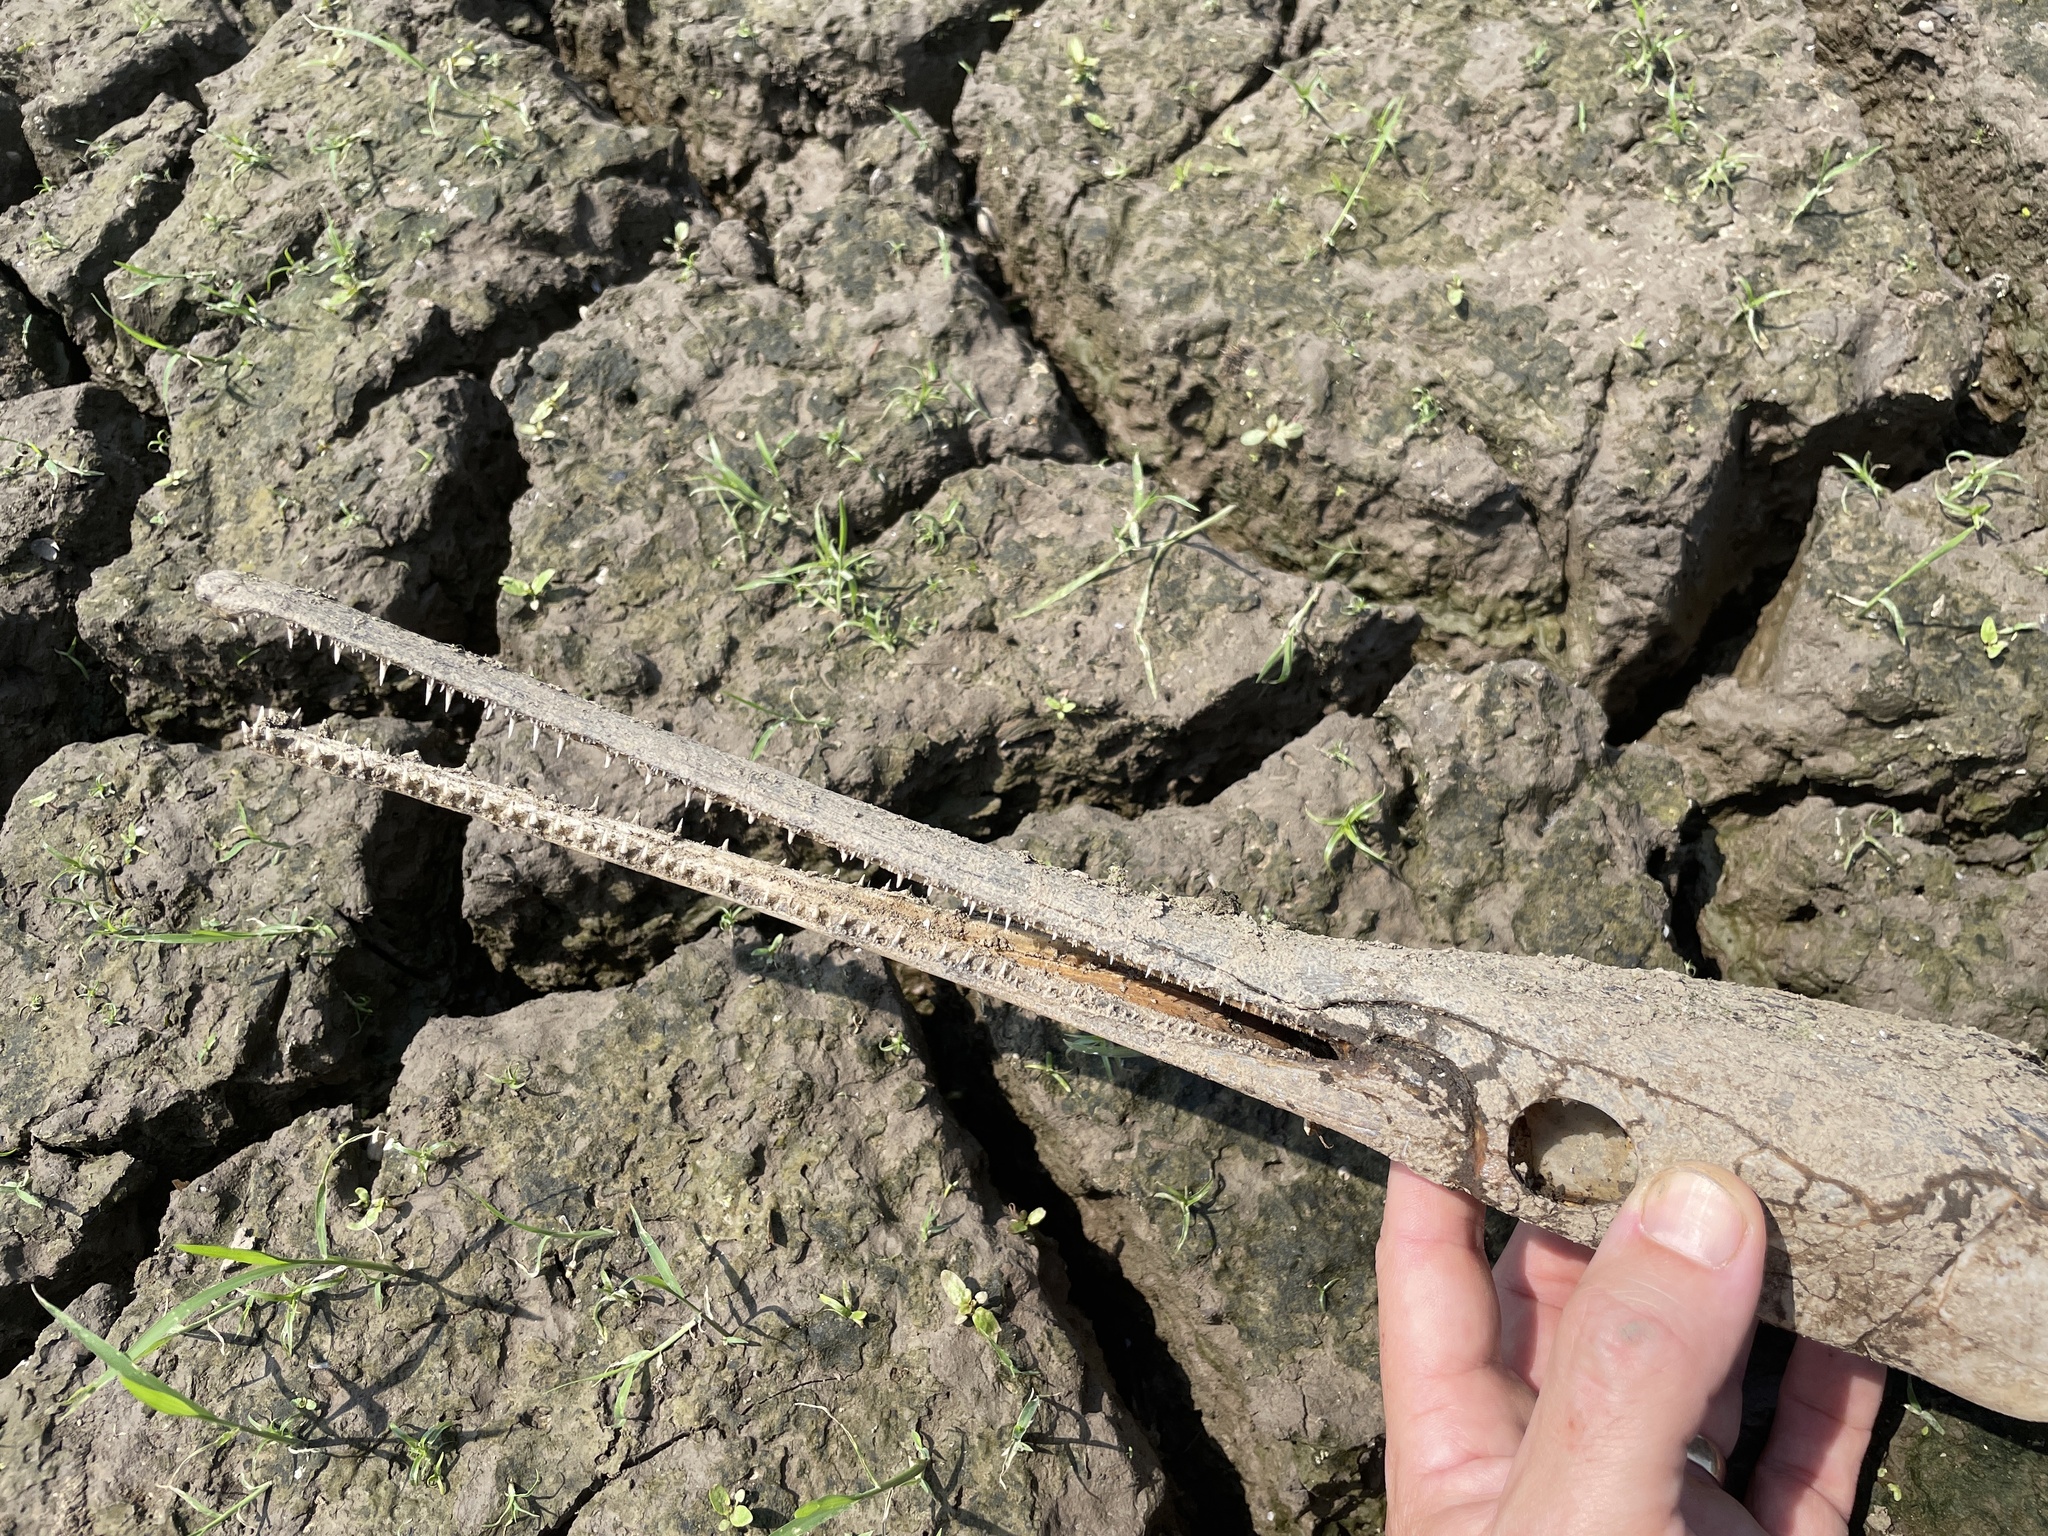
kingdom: Animalia
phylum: Chordata
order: Lepisosteiformes
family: Lepisosteidae
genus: Lepisosteus
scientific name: Lepisosteus osseus
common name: Longnose gar
